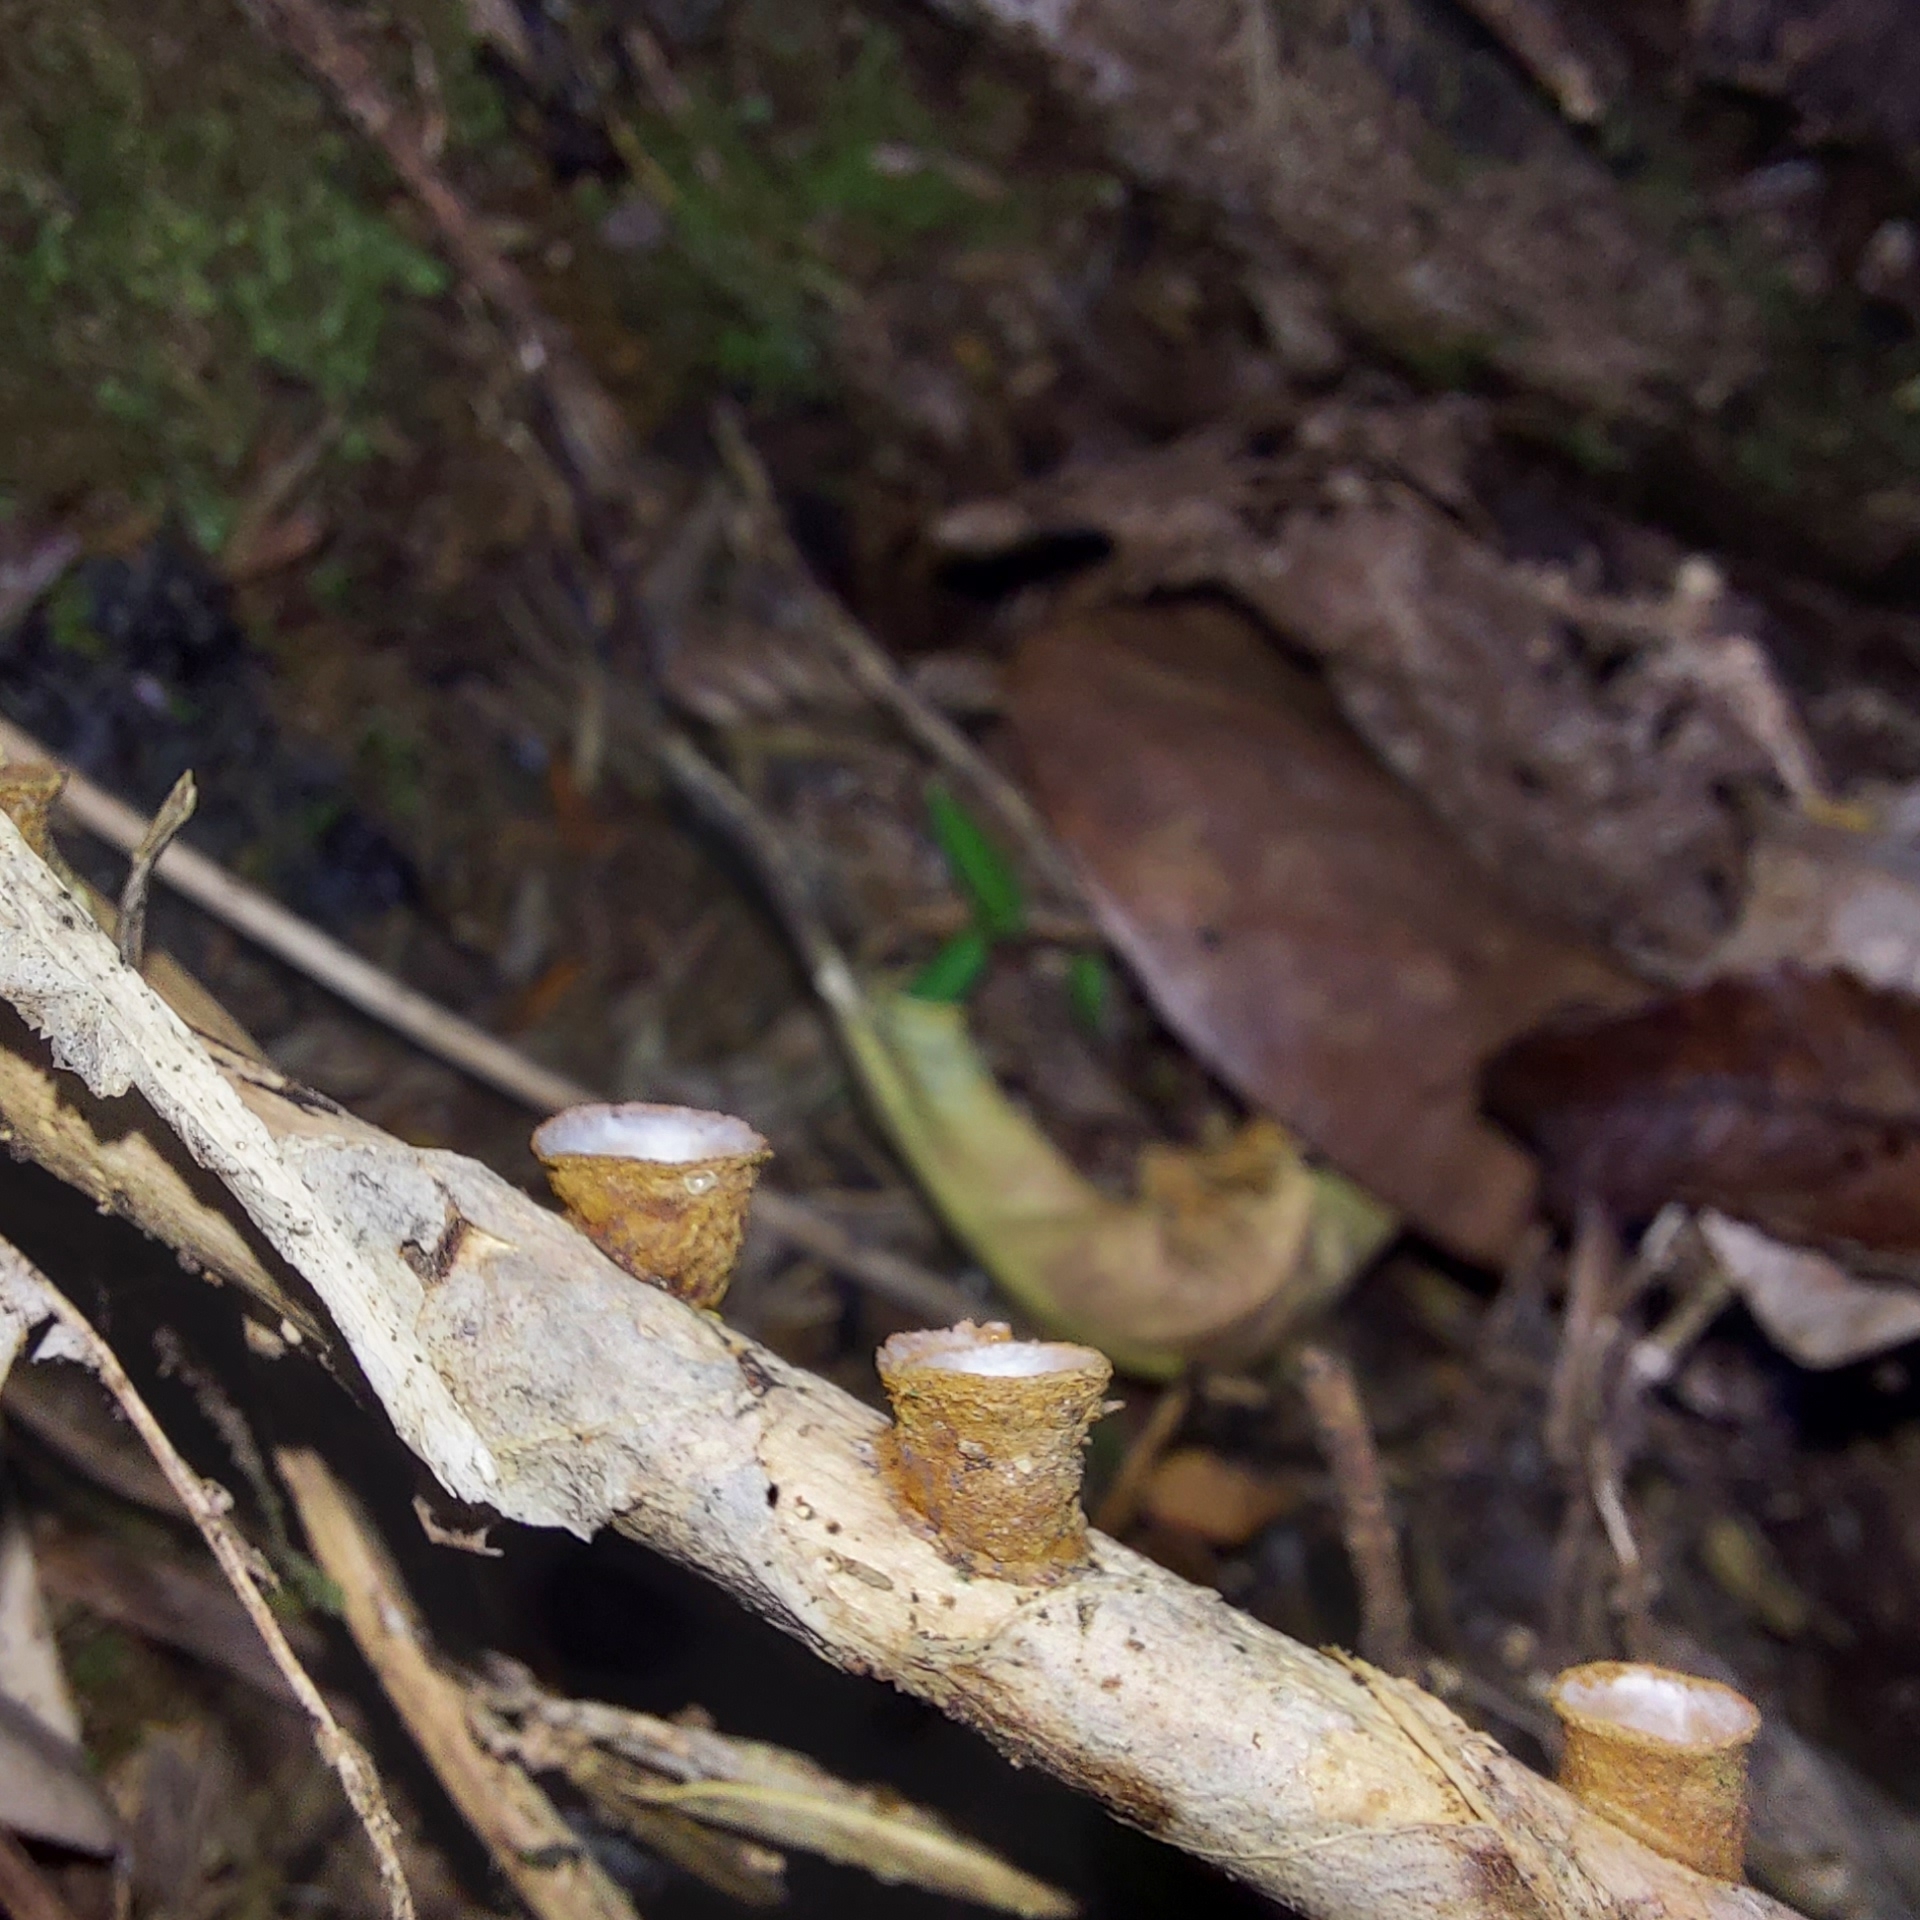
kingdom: Fungi
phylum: Basidiomycota
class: Agaricomycetes
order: Agaricales
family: Nidulariaceae
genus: Crucibulum
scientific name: Crucibulum laeve
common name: Common bird's nest
